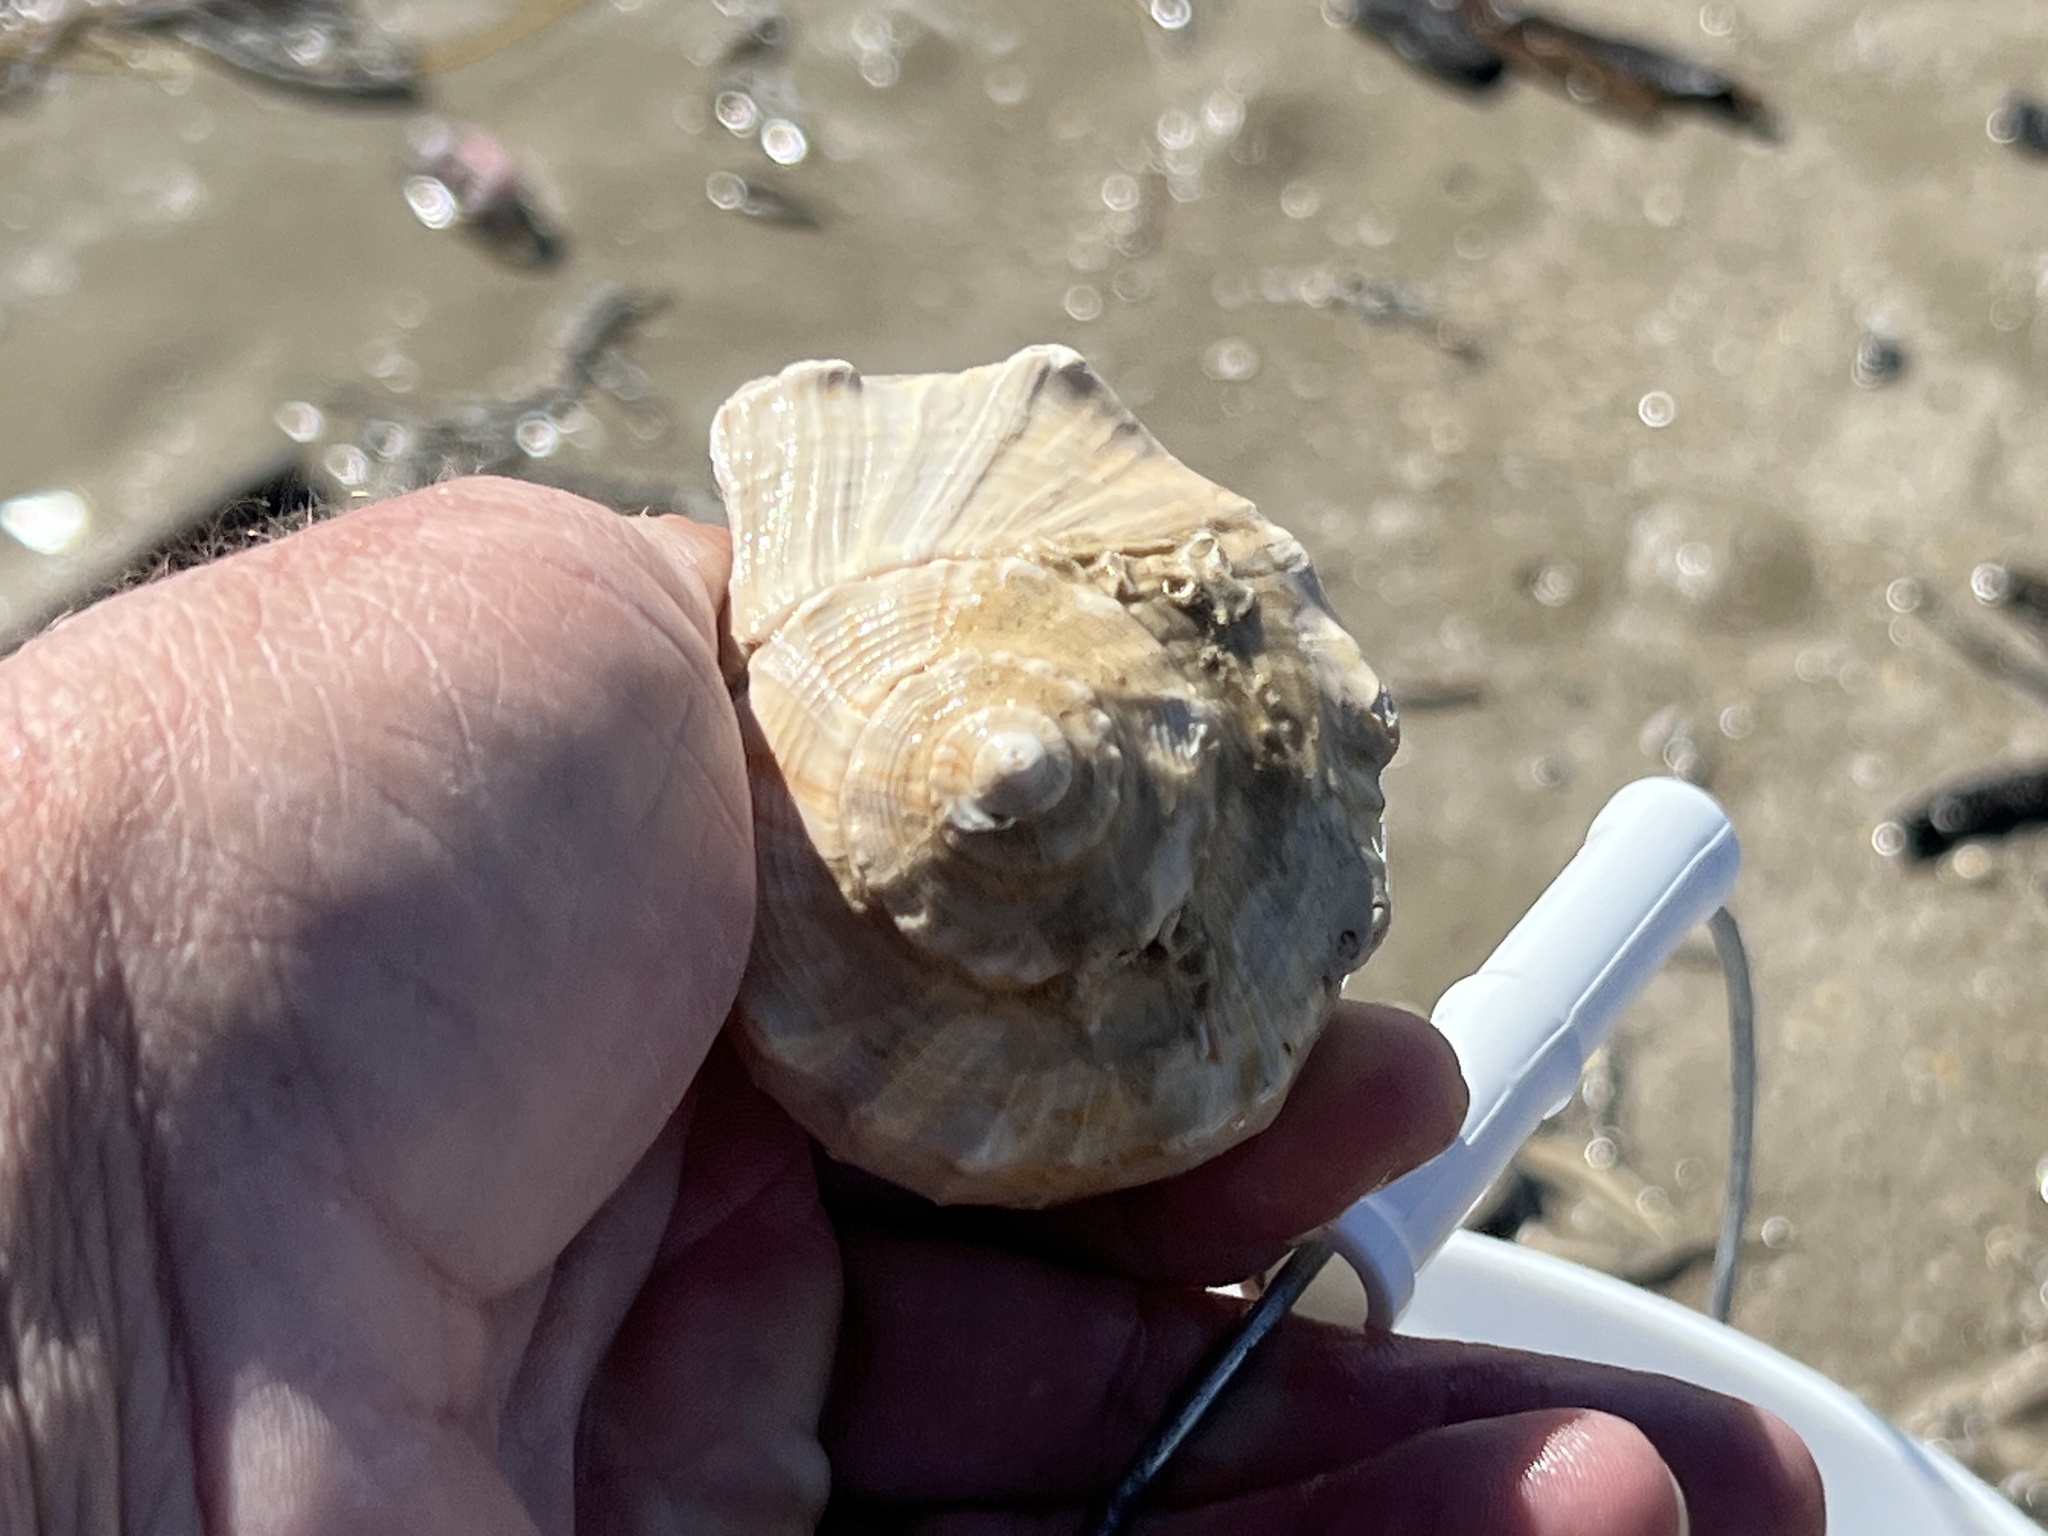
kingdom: Animalia
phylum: Mollusca
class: Gastropoda
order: Neogastropoda
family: Busyconidae
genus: Sinistrofulgur
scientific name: Sinistrofulgur pulleyi
